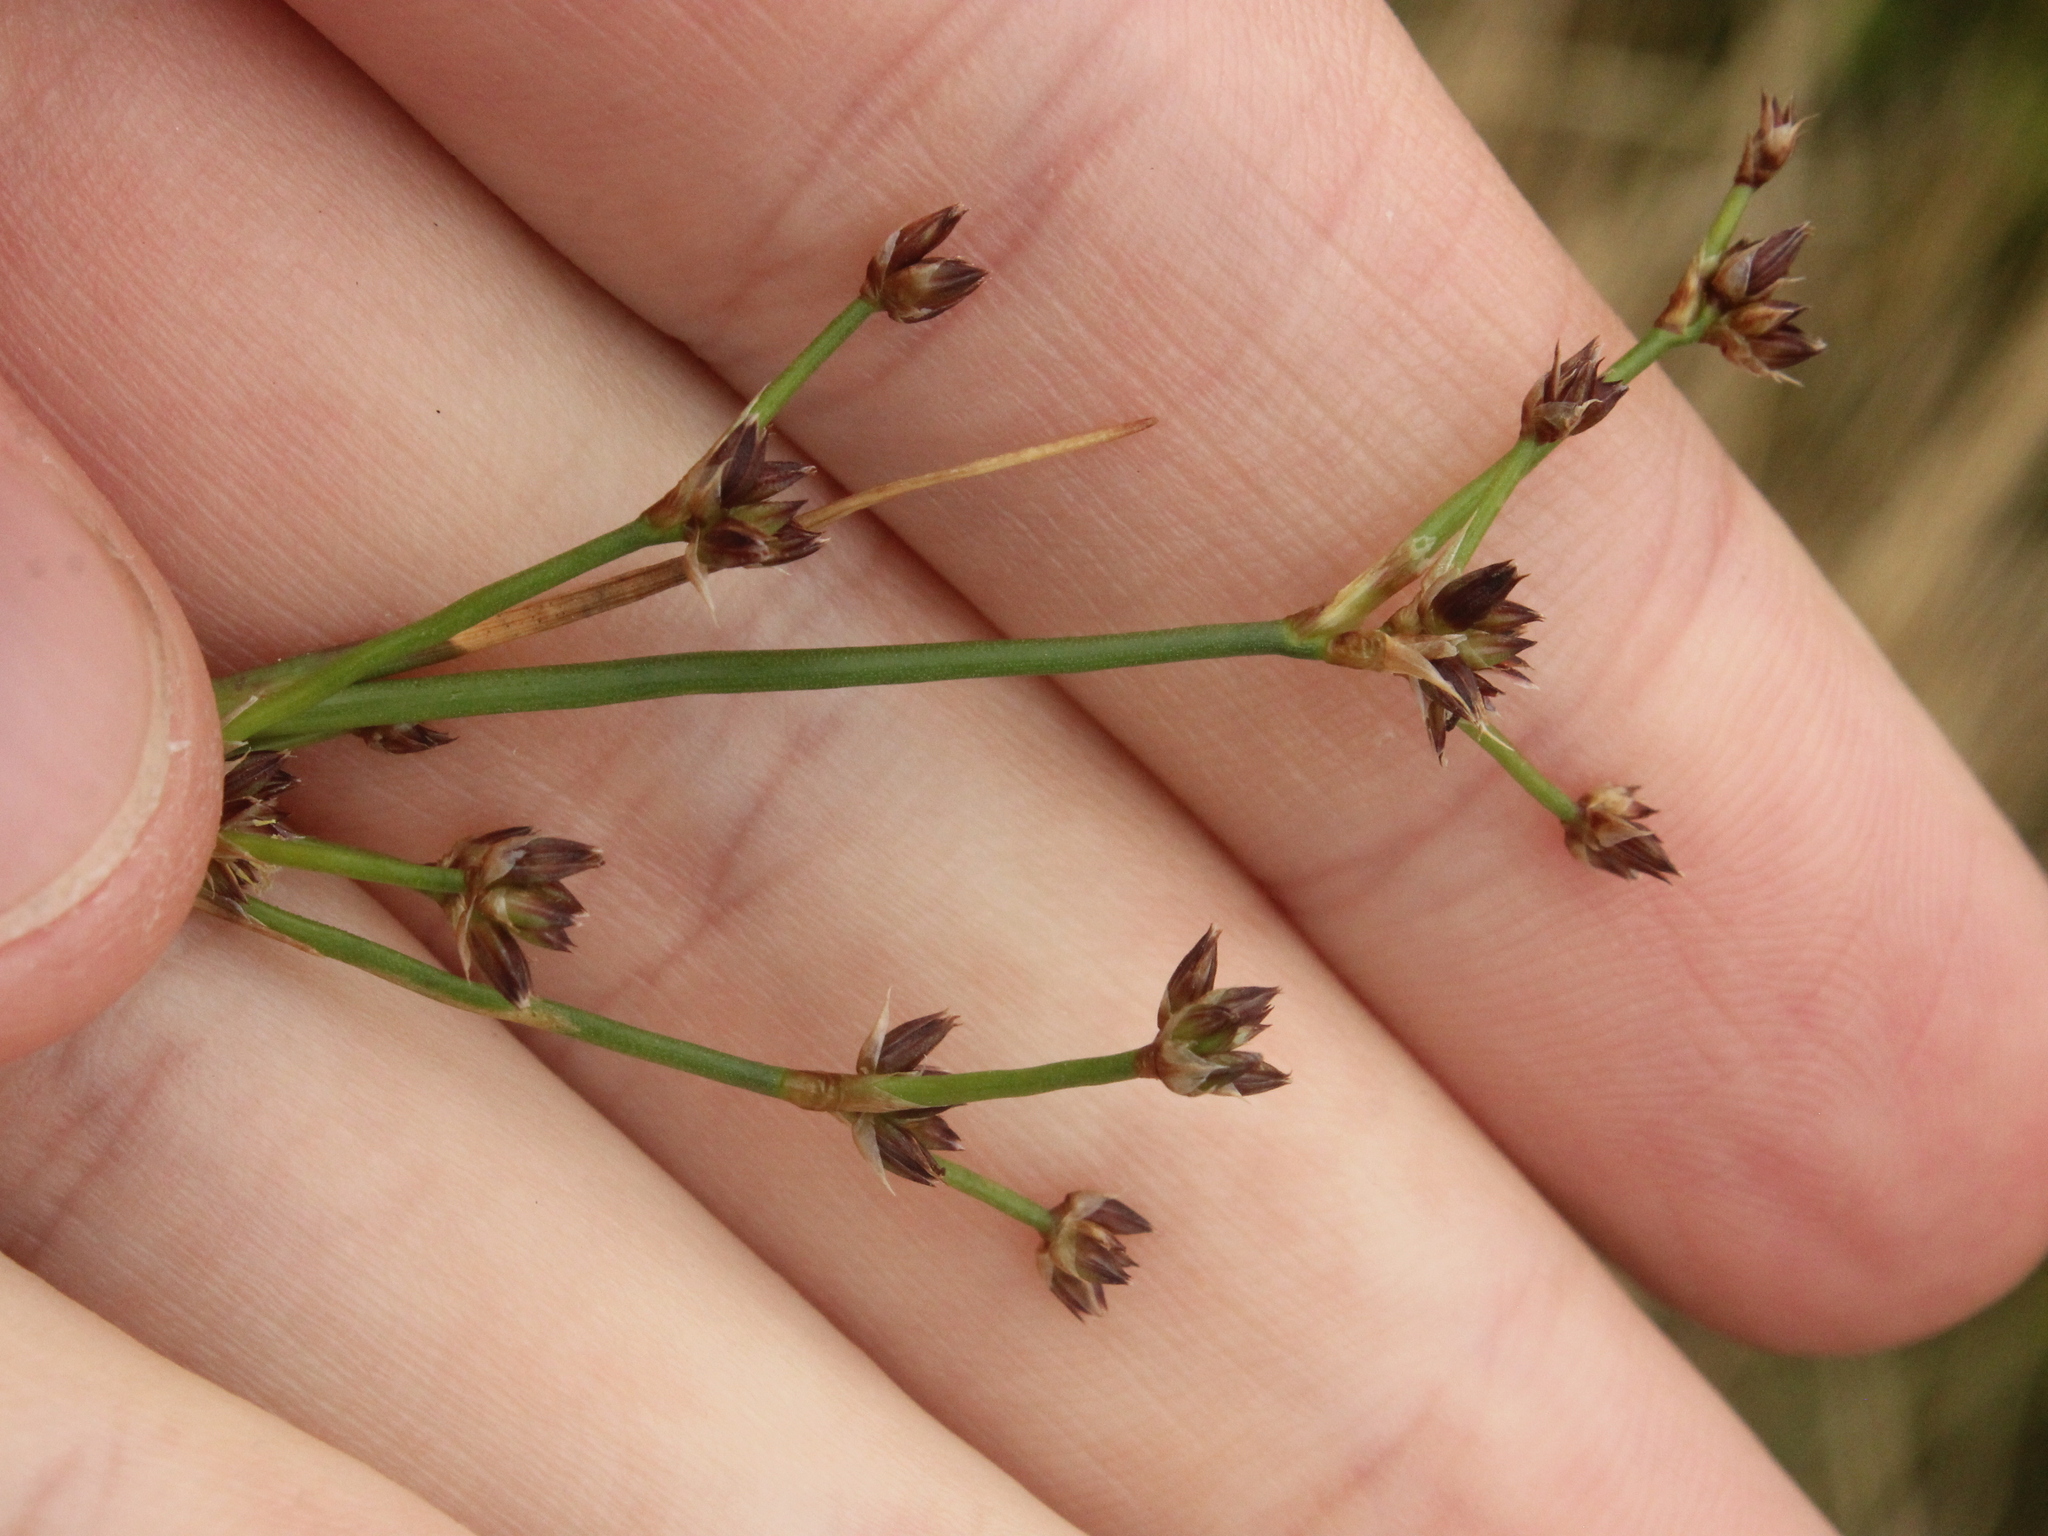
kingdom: Plantae
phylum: Tracheophyta
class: Liliopsida
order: Poales
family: Juncaceae
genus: Juncus
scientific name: Juncus articulatus
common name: Jointed rush
